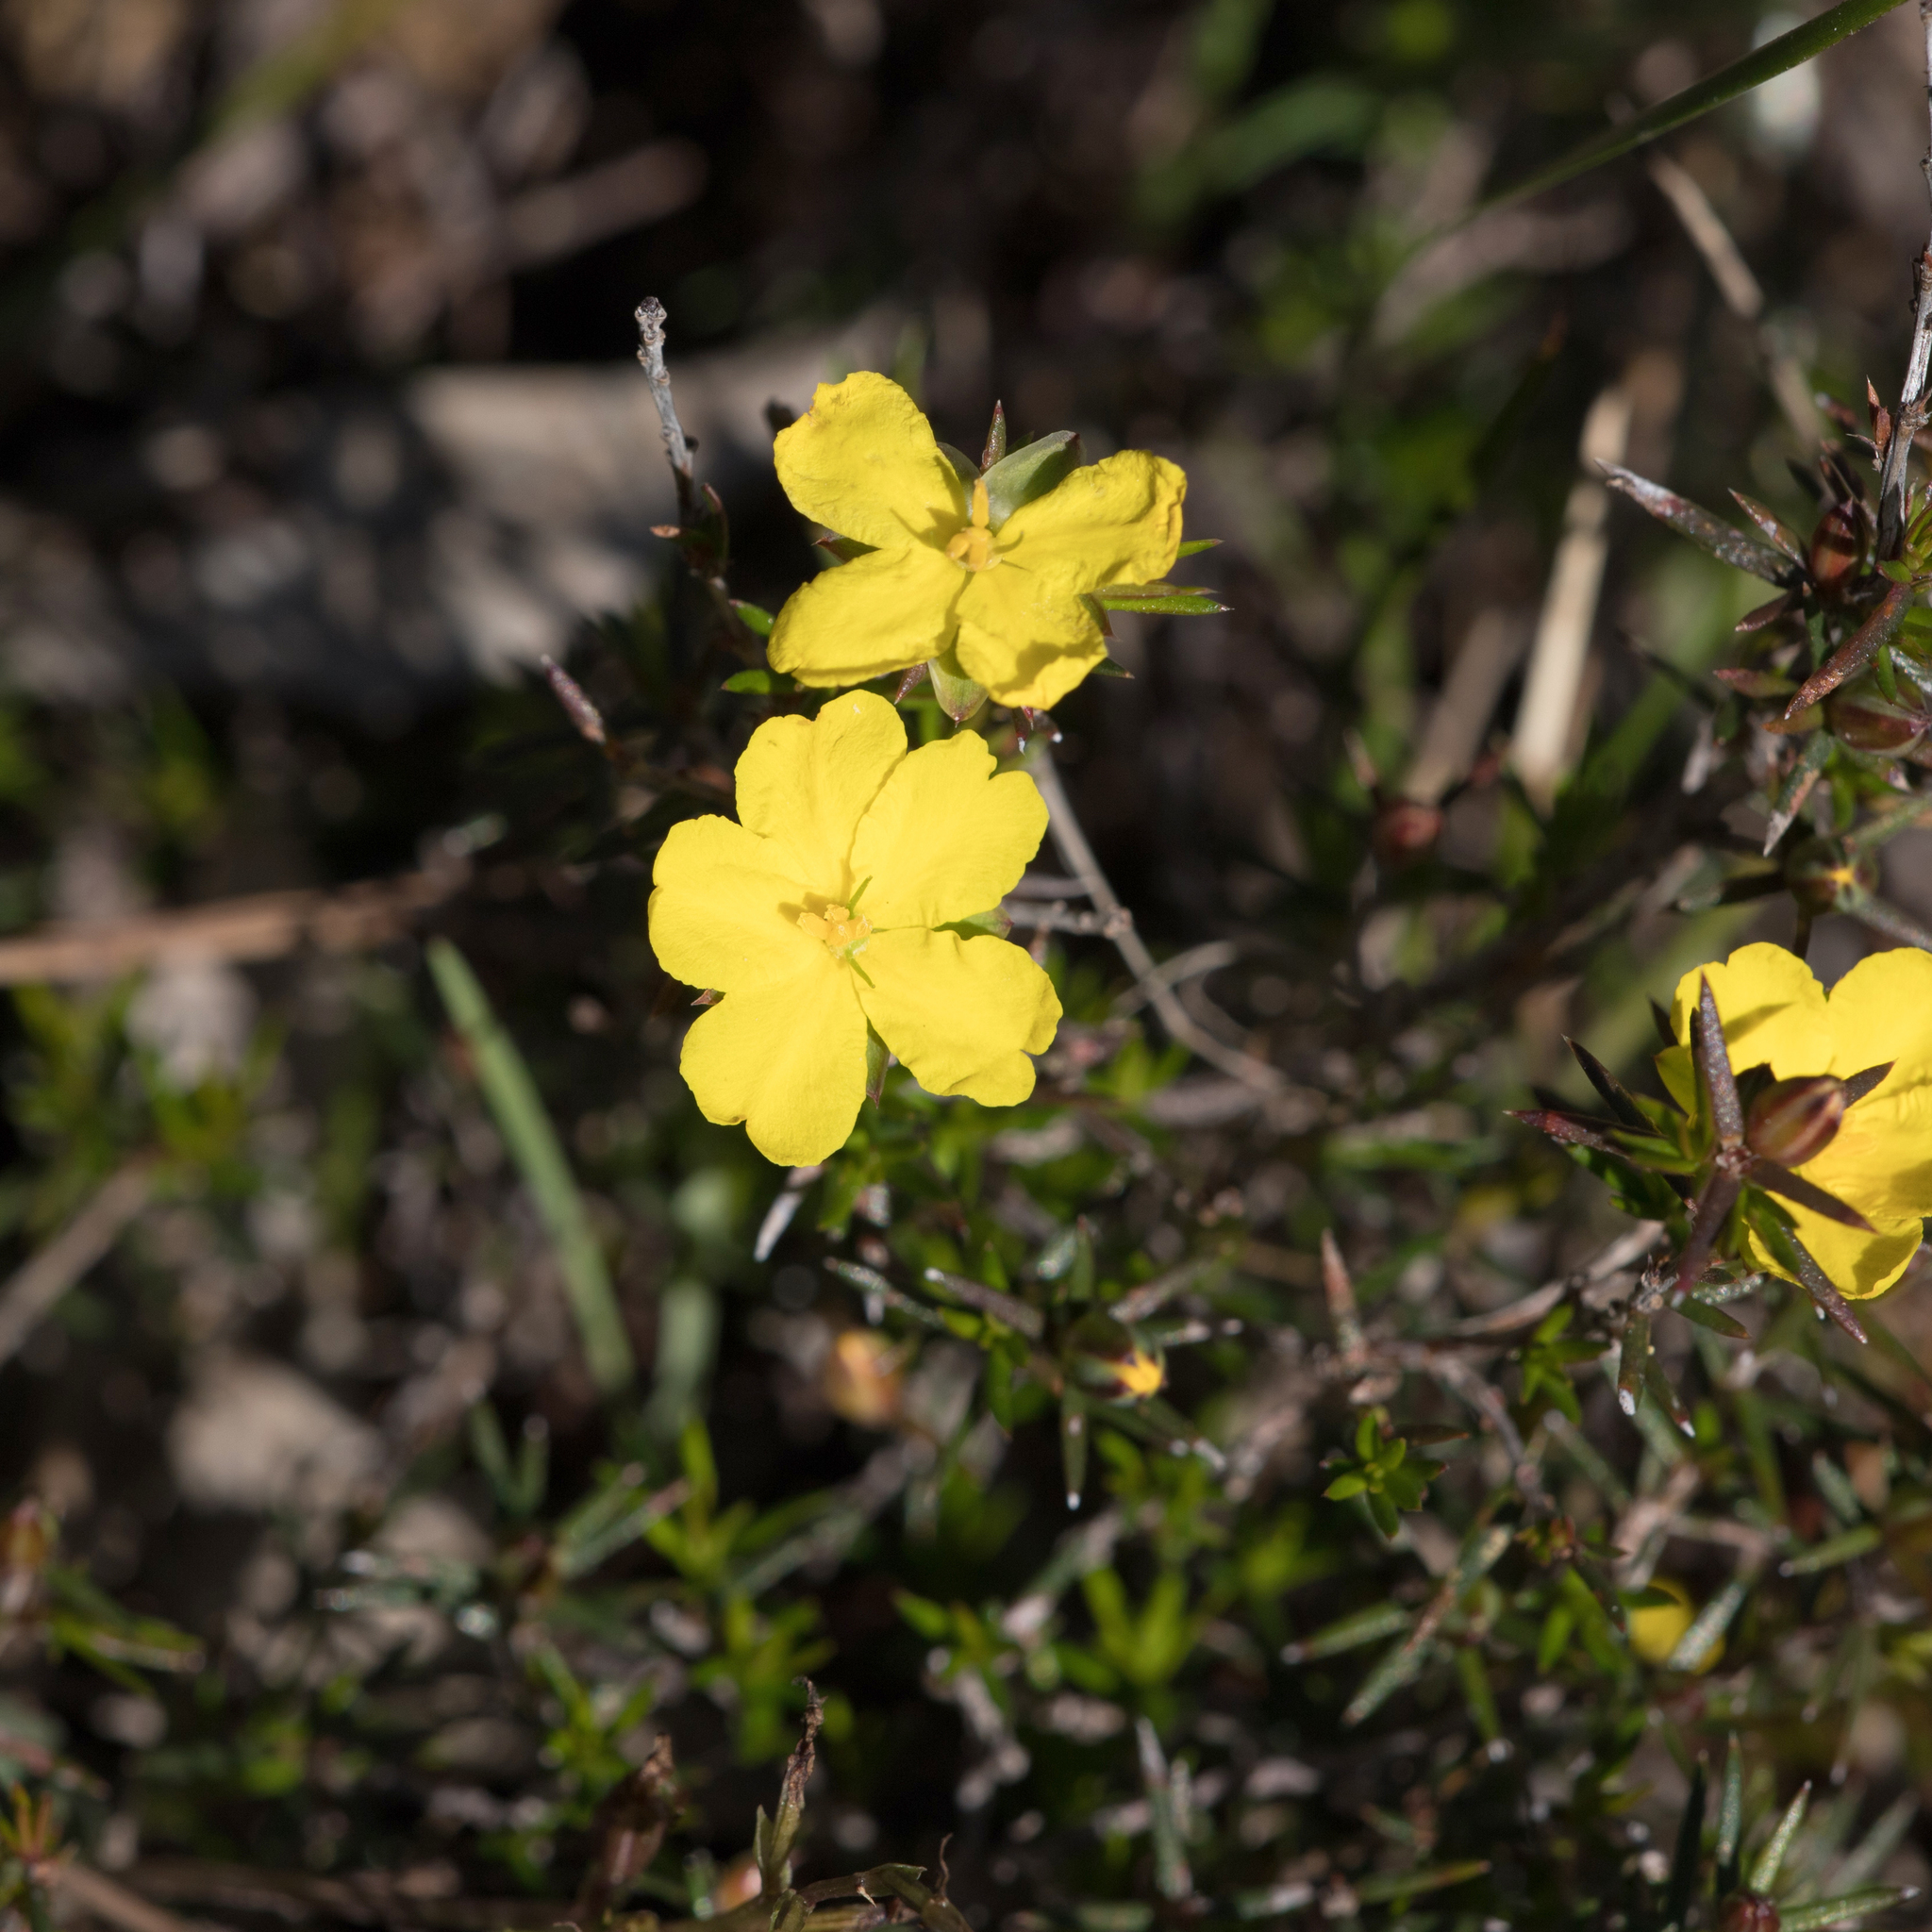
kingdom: Plantae
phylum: Tracheophyta
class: Magnoliopsida
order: Dilleniales
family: Dilleniaceae
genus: Hibbertia
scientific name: Hibbertia exutiacies
